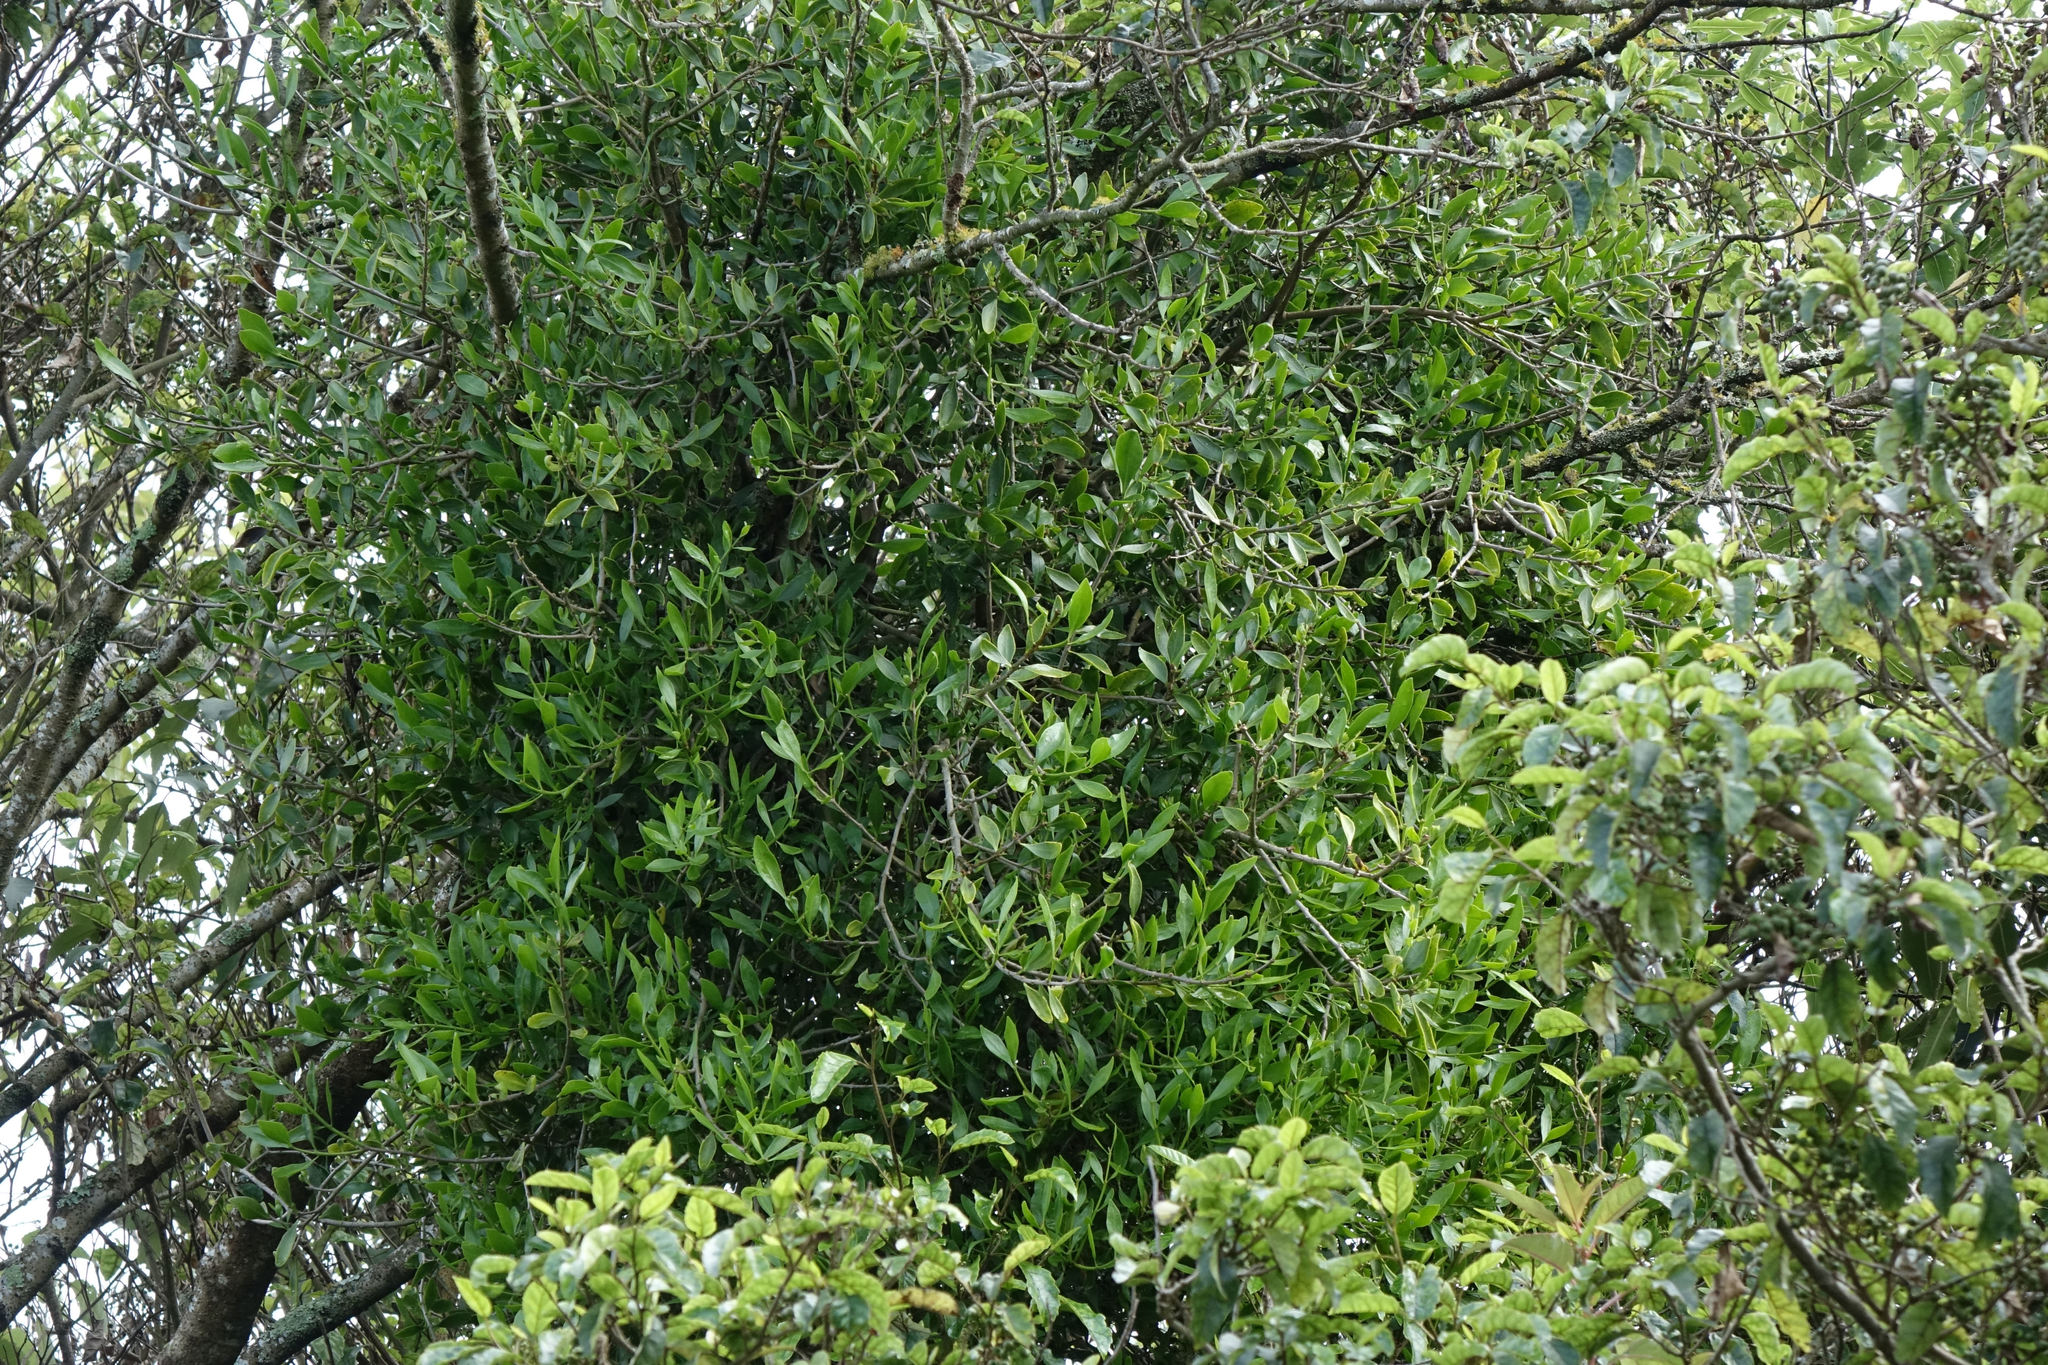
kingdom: Plantae
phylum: Tracheophyta
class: Magnoliopsida
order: Santalales
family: Loranthaceae
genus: Tupeia
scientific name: Tupeia antarctica
